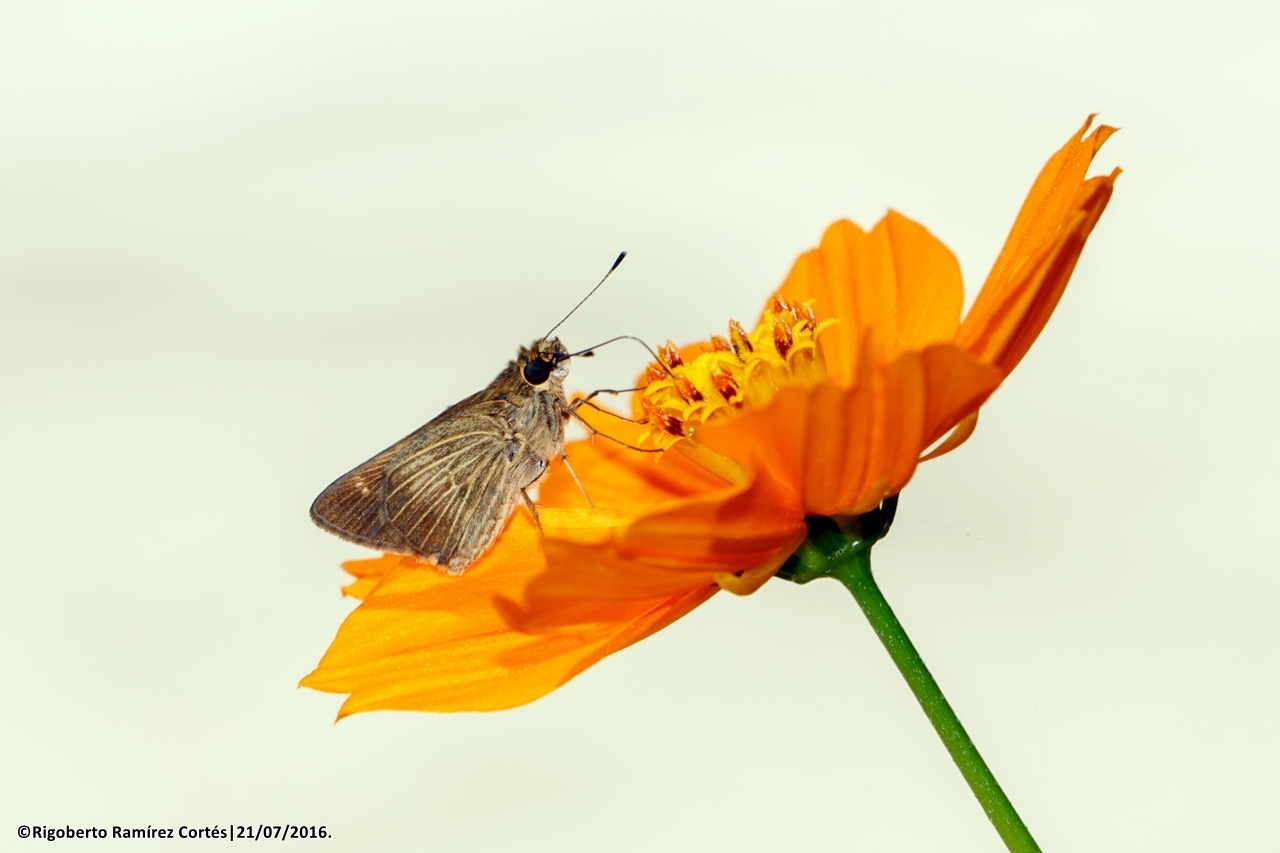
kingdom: Animalia
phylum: Arthropoda
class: Insecta
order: Lepidoptera
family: Hesperiidae
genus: Vehilius
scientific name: Vehilius stictomenes
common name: Pasture skipper
